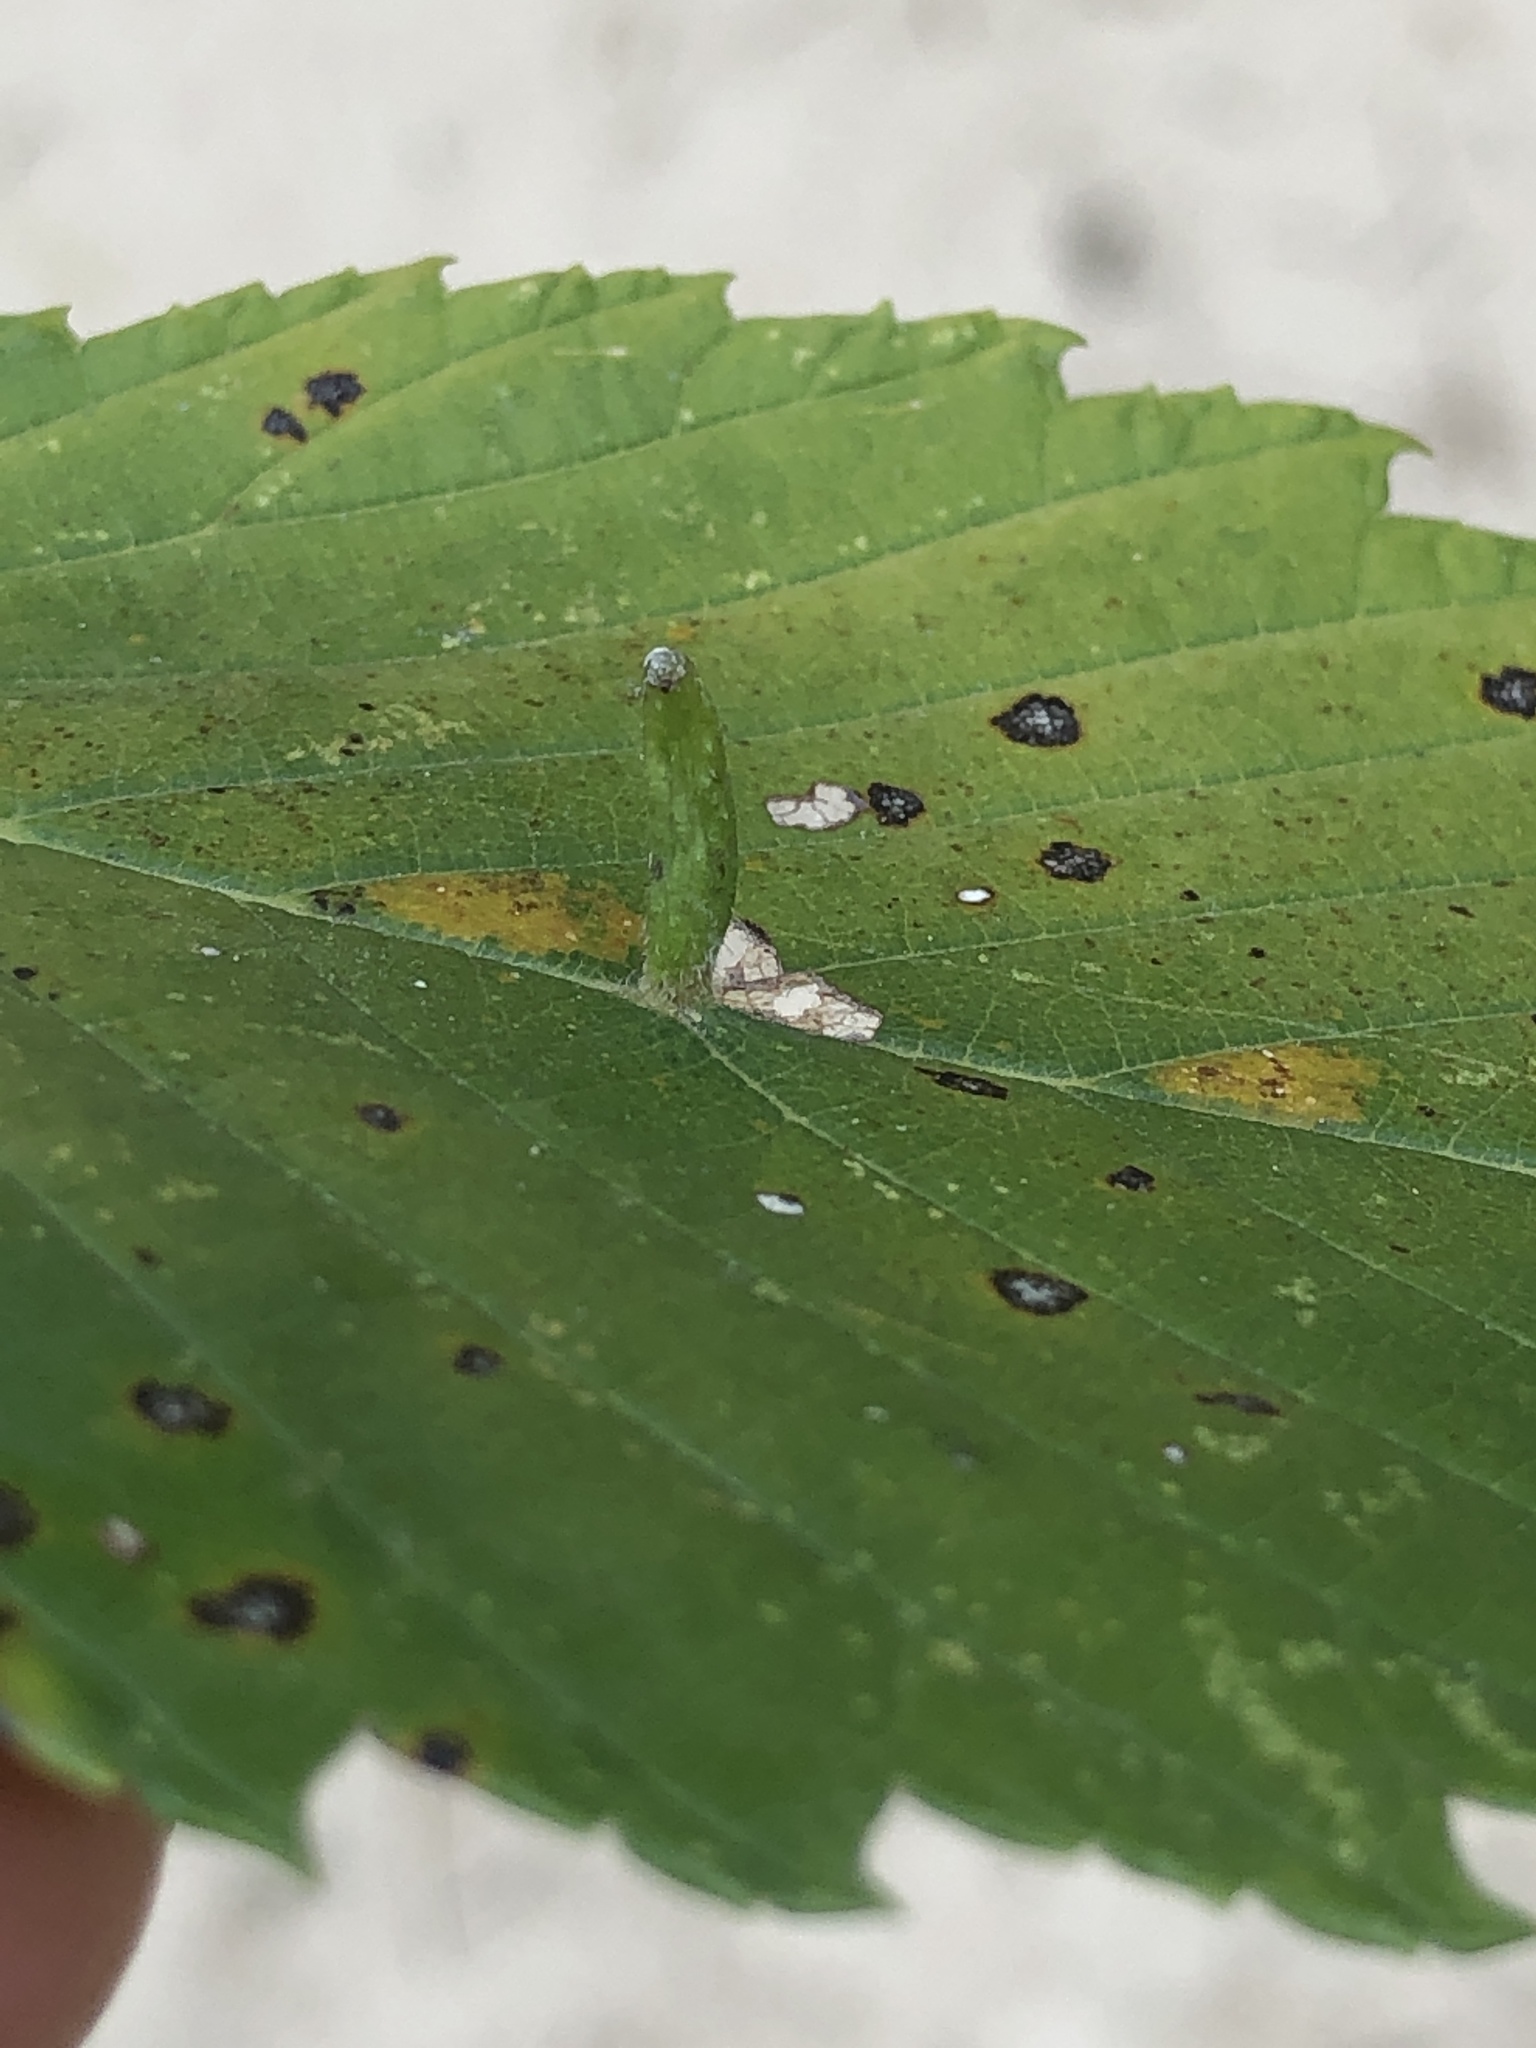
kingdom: Animalia
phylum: Arthropoda
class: Arachnida
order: Trombidiformes
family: Eriophyidae
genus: Aceria
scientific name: Aceria
